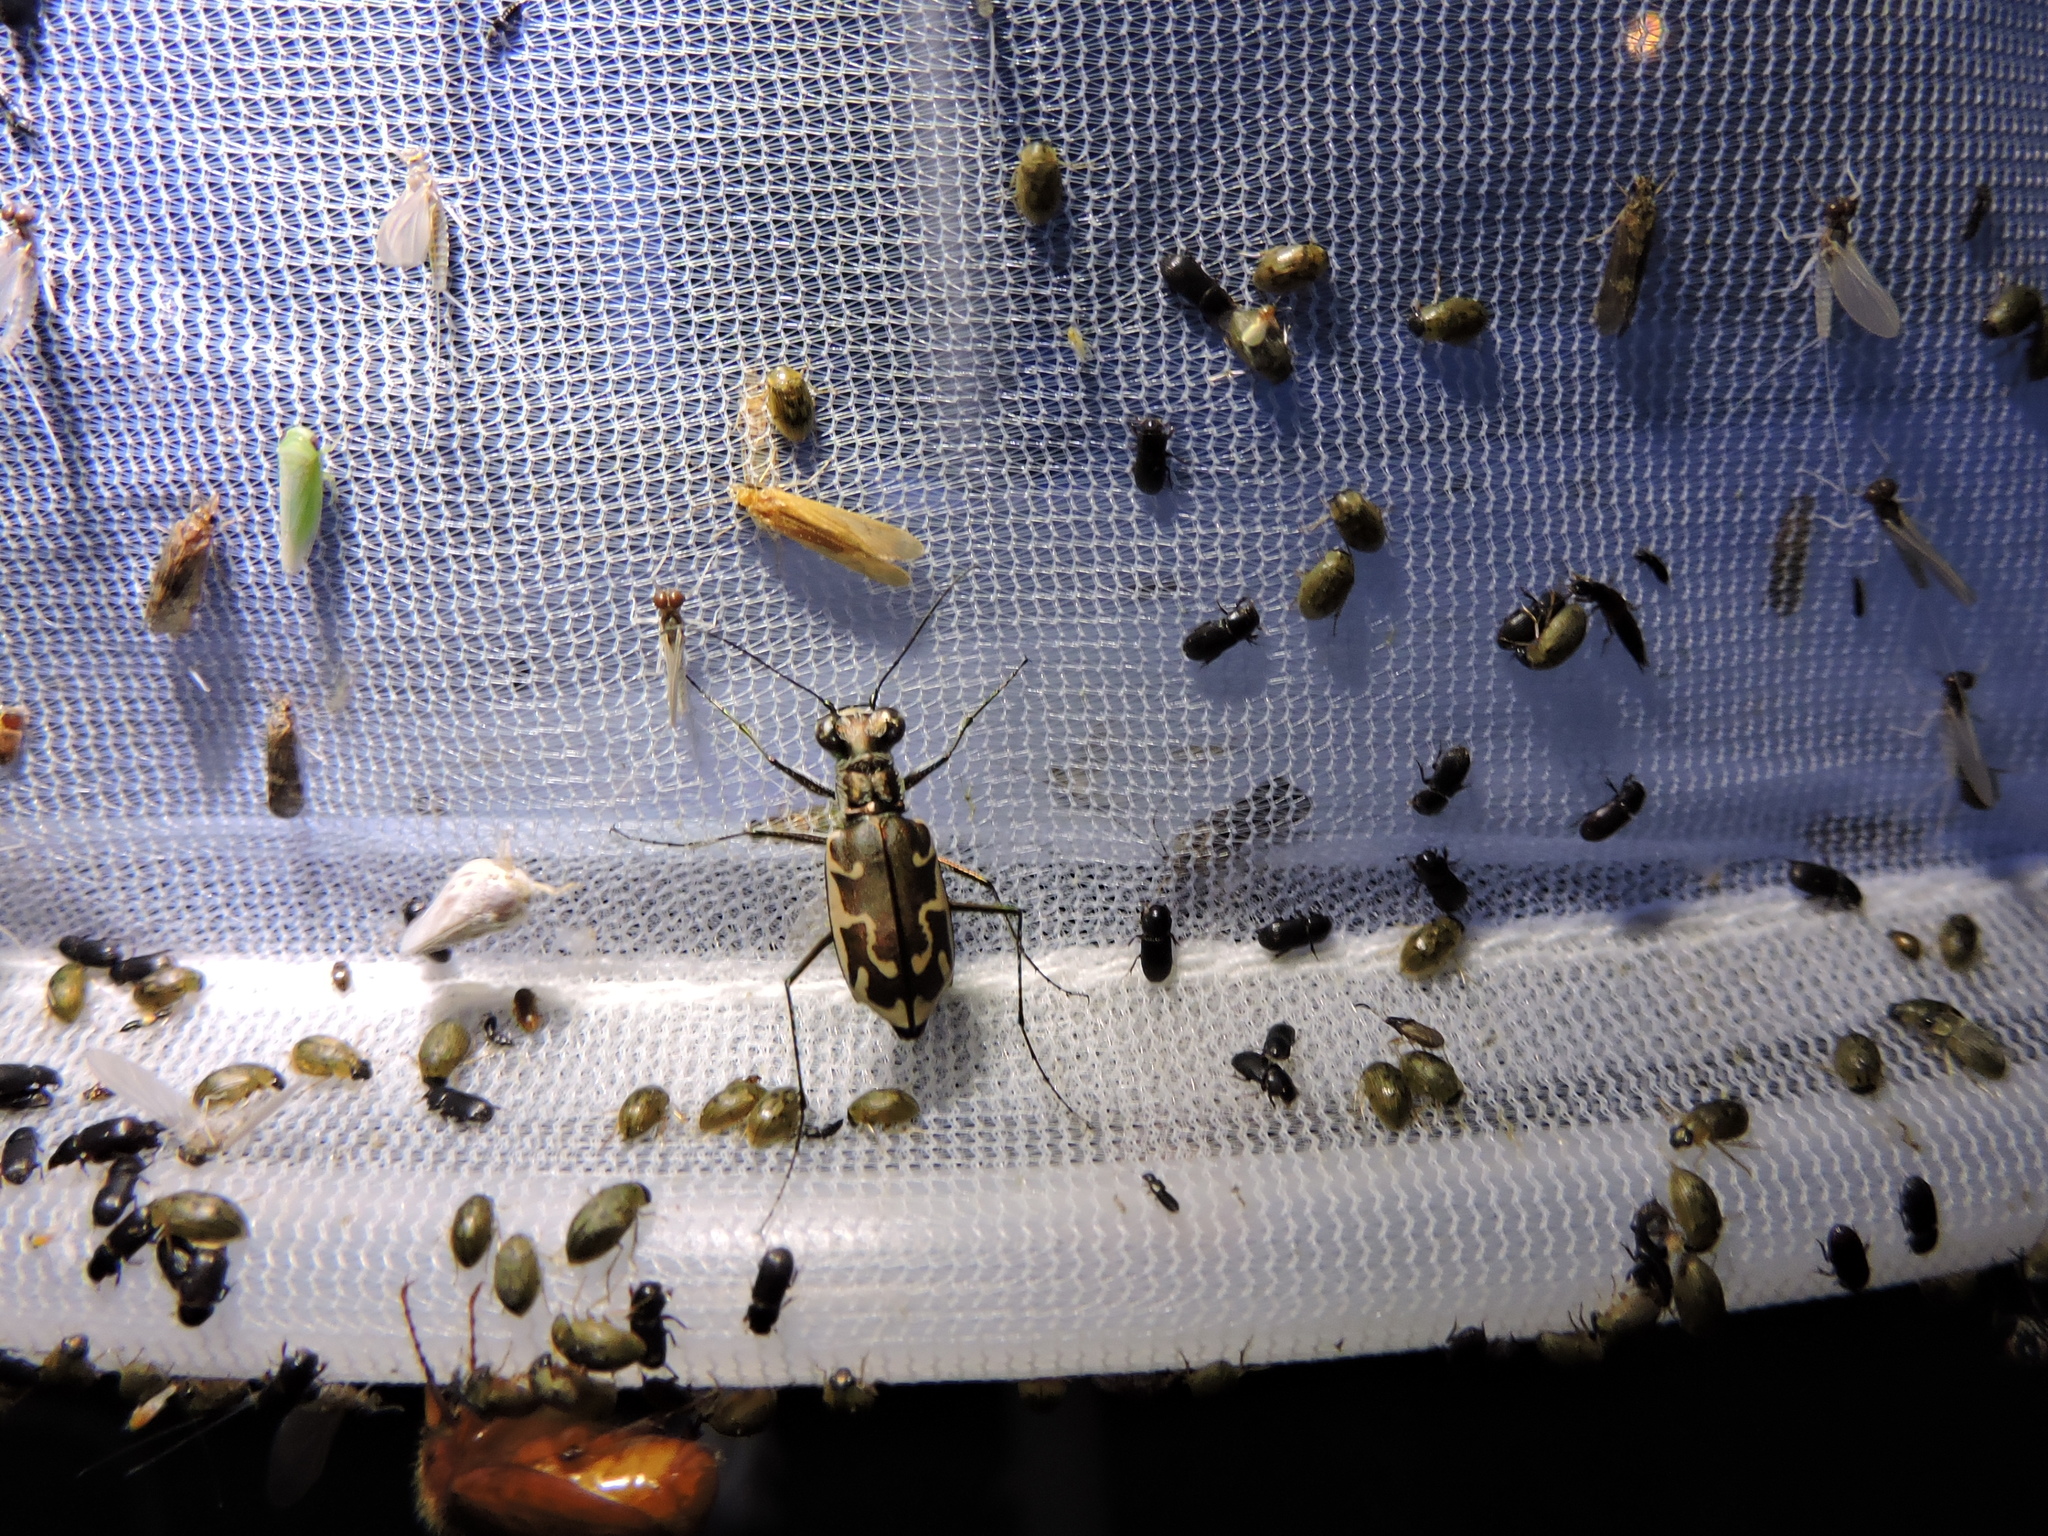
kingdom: Animalia
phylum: Arthropoda
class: Insecta
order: Coleoptera
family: Carabidae
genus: Ellipsoptera
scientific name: Ellipsoptera sperata
